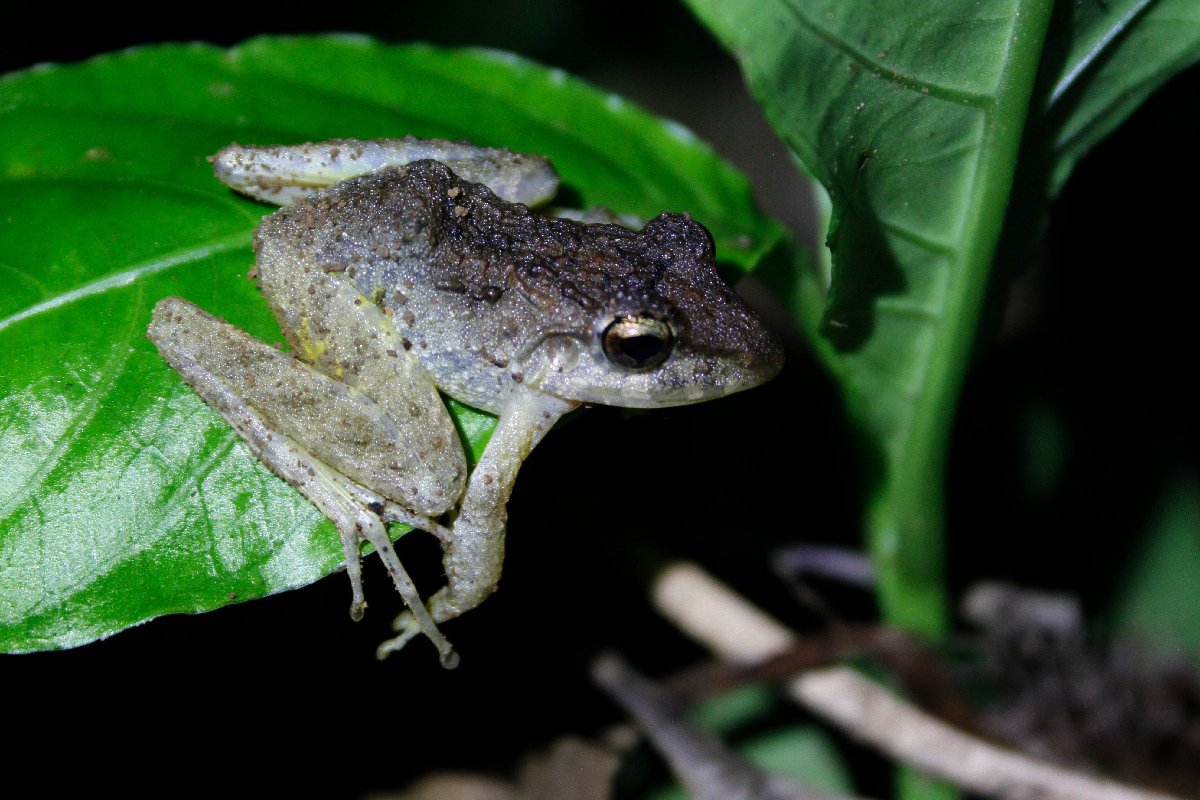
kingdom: Animalia
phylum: Chordata
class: Amphibia
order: Anura
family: Craugastoridae
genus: Craugastor
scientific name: Craugastor crassidigitus
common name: Isla bonita robber frog
